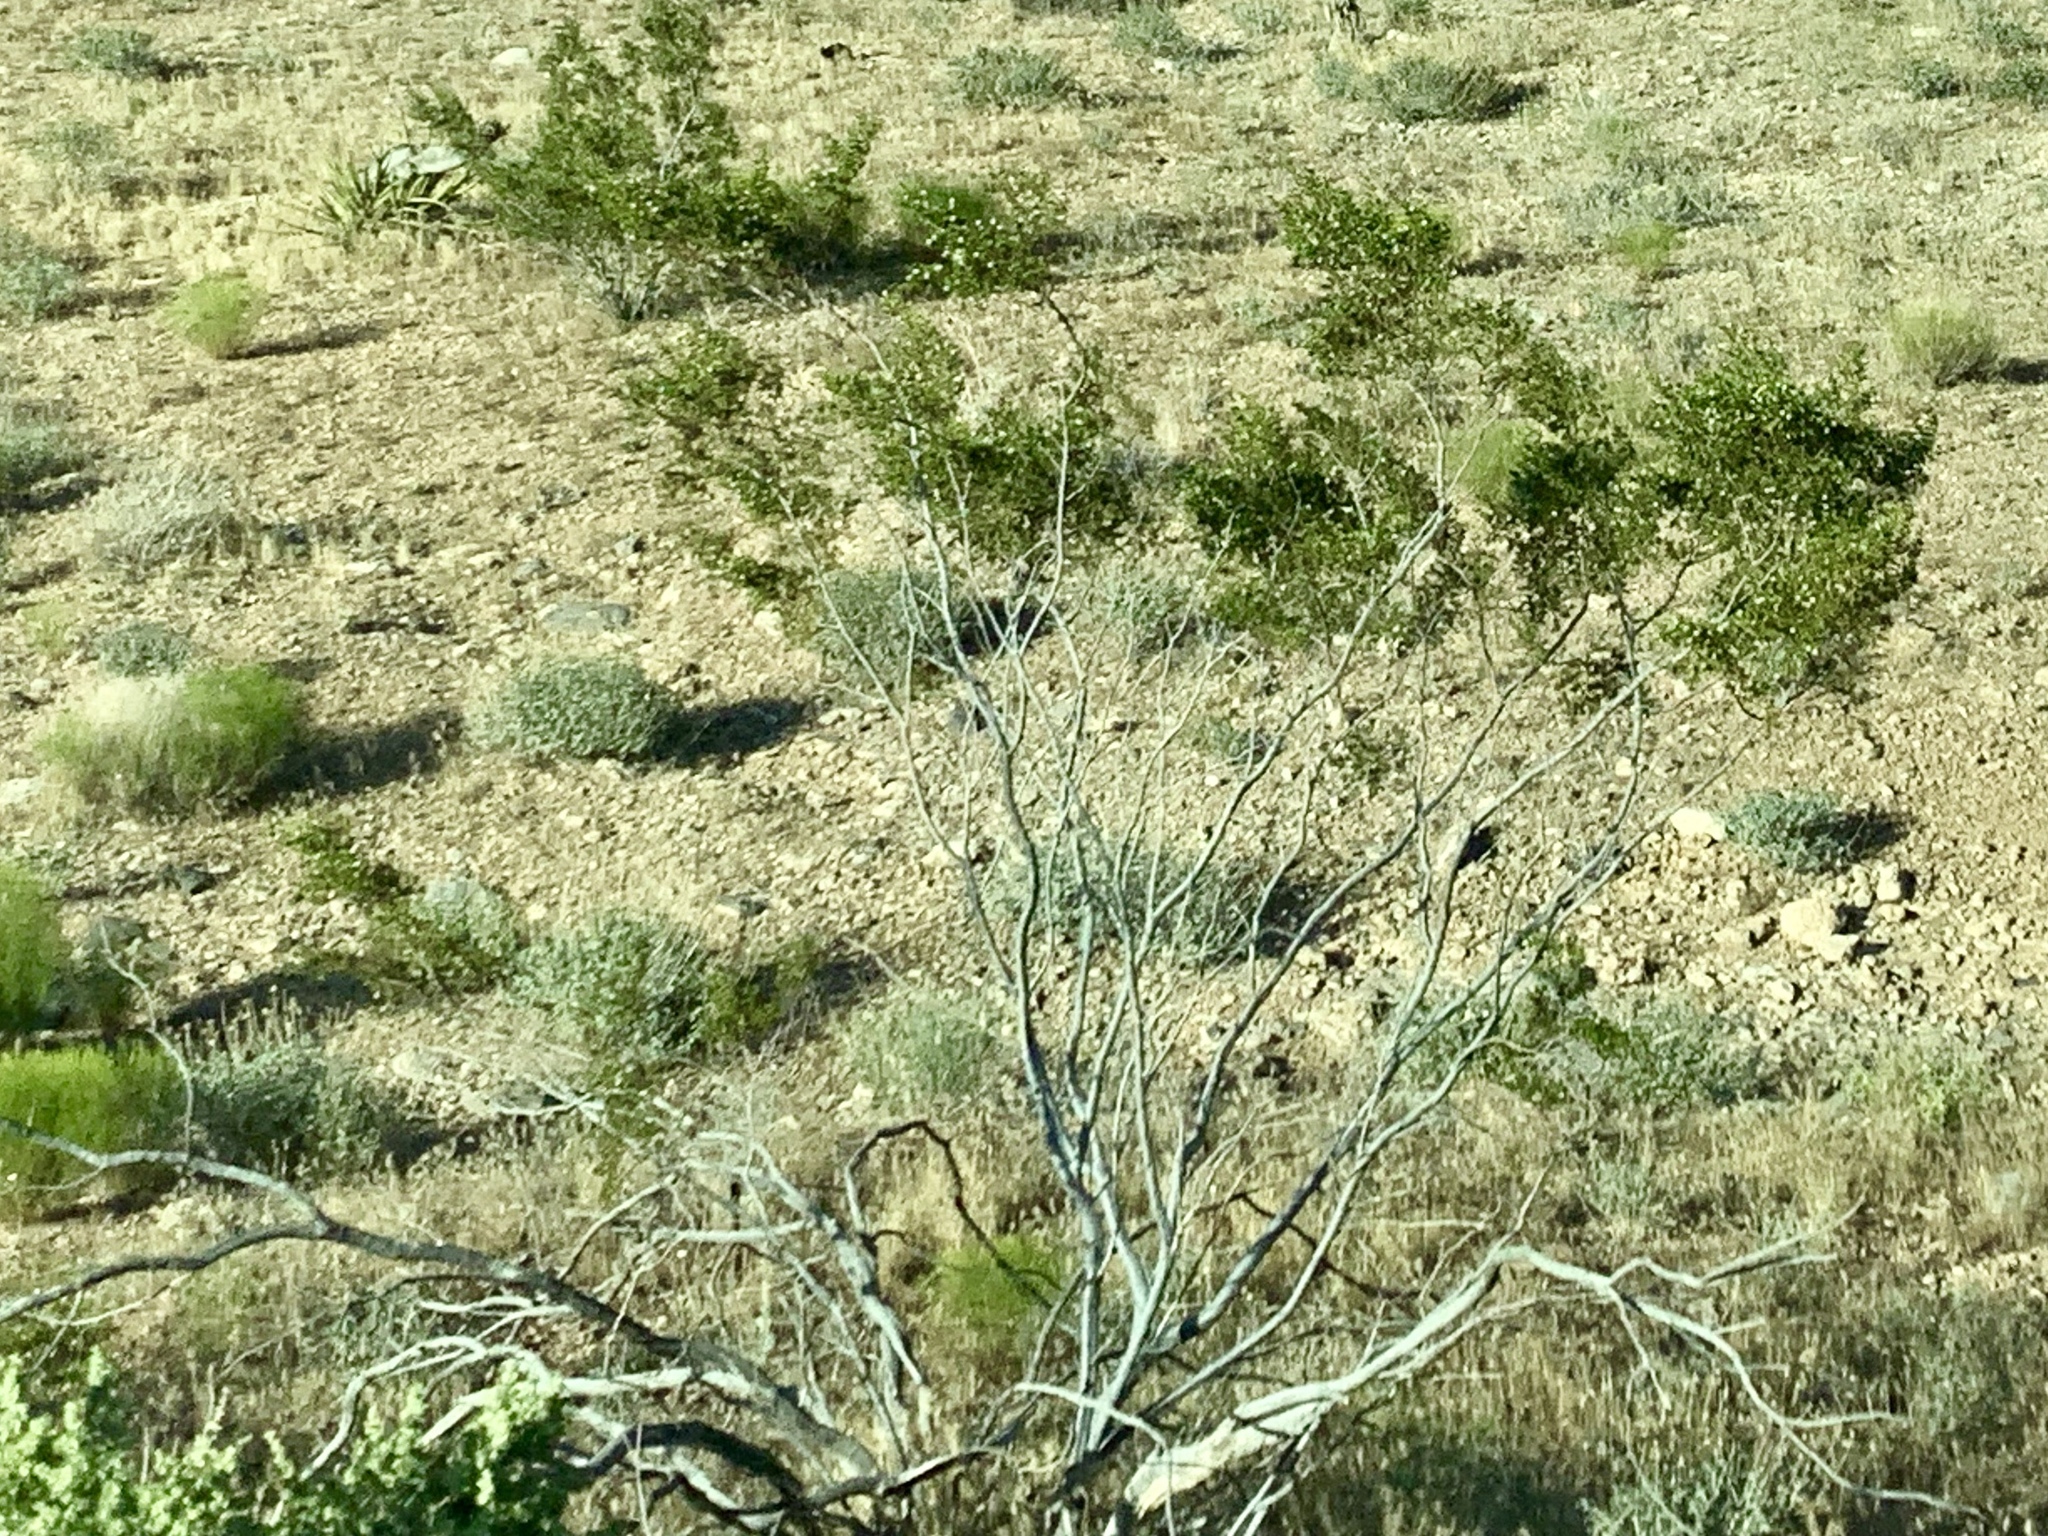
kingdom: Plantae
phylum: Tracheophyta
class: Magnoliopsida
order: Zygophyllales
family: Zygophyllaceae
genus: Larrea
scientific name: Larrea tridentata
